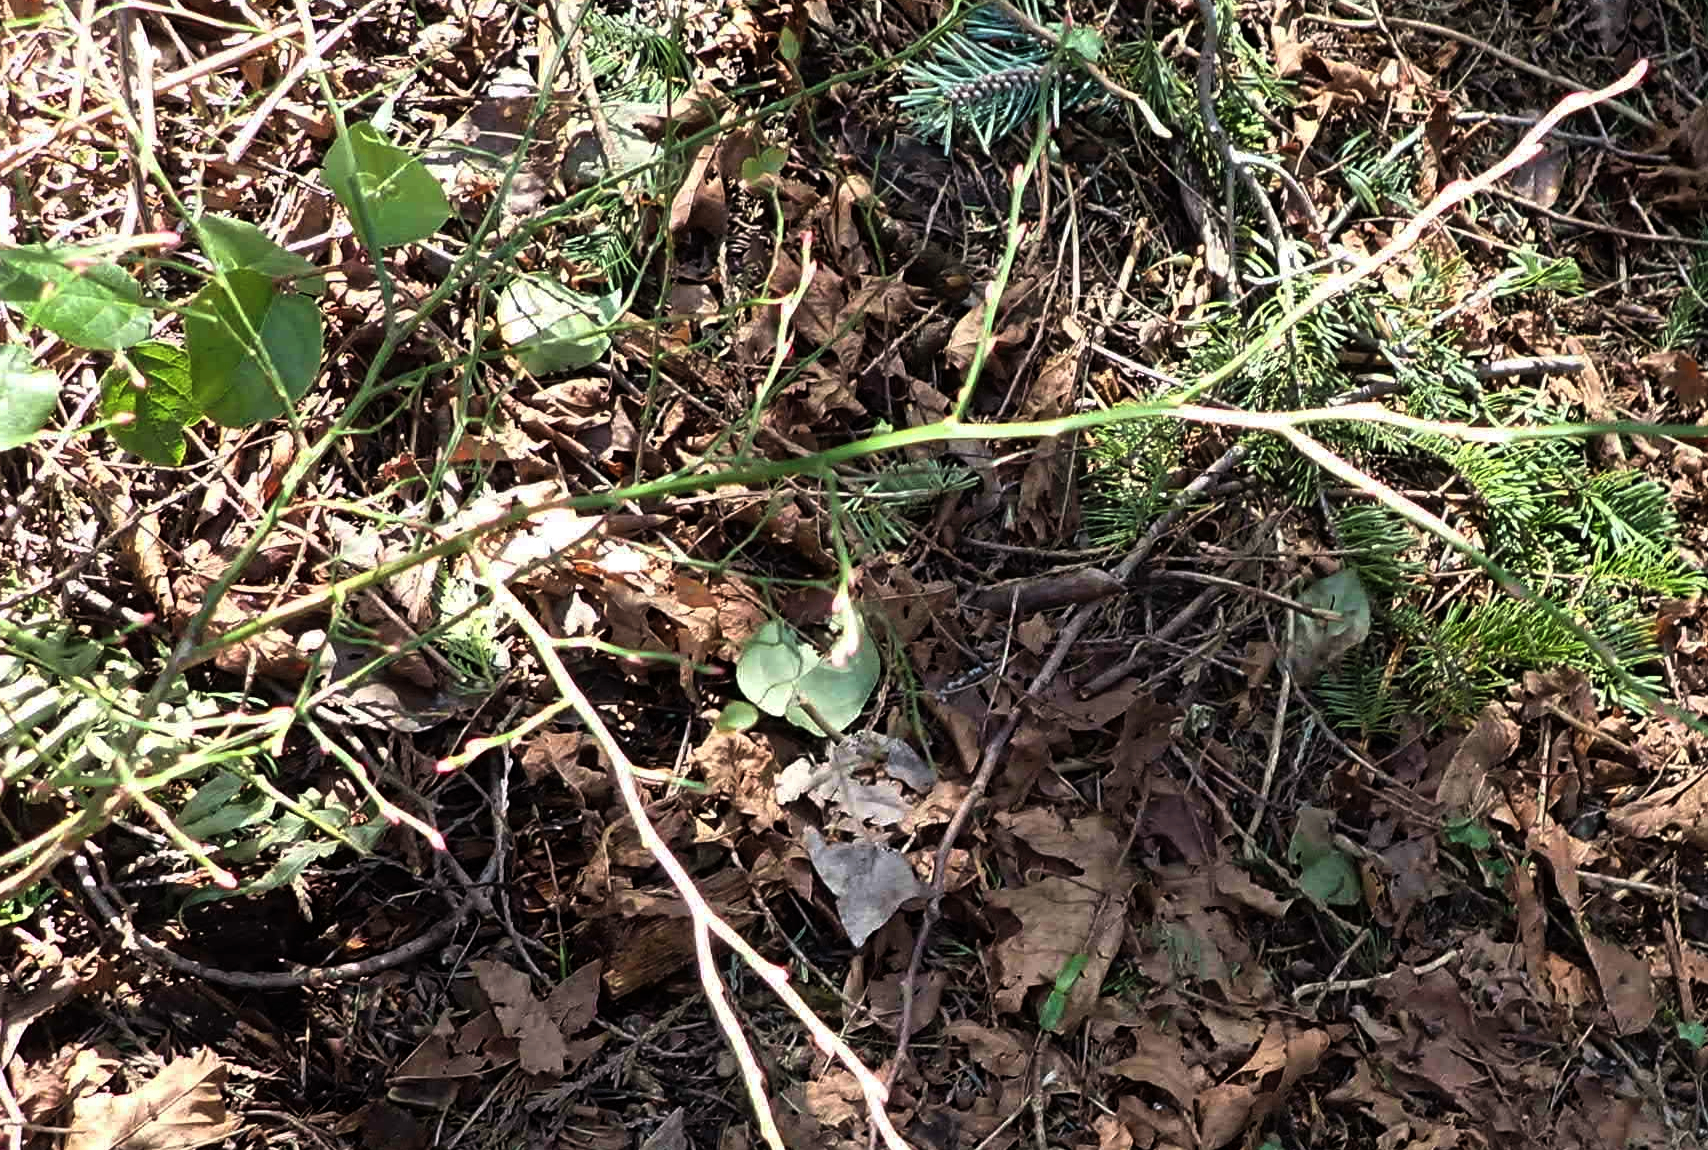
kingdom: Plantae
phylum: Tracheophyta
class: Magnoliopsida
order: Ericales
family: Ericaceae
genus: Vaccinium
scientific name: Vaccinium parvifolium
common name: Red-huckleberry
